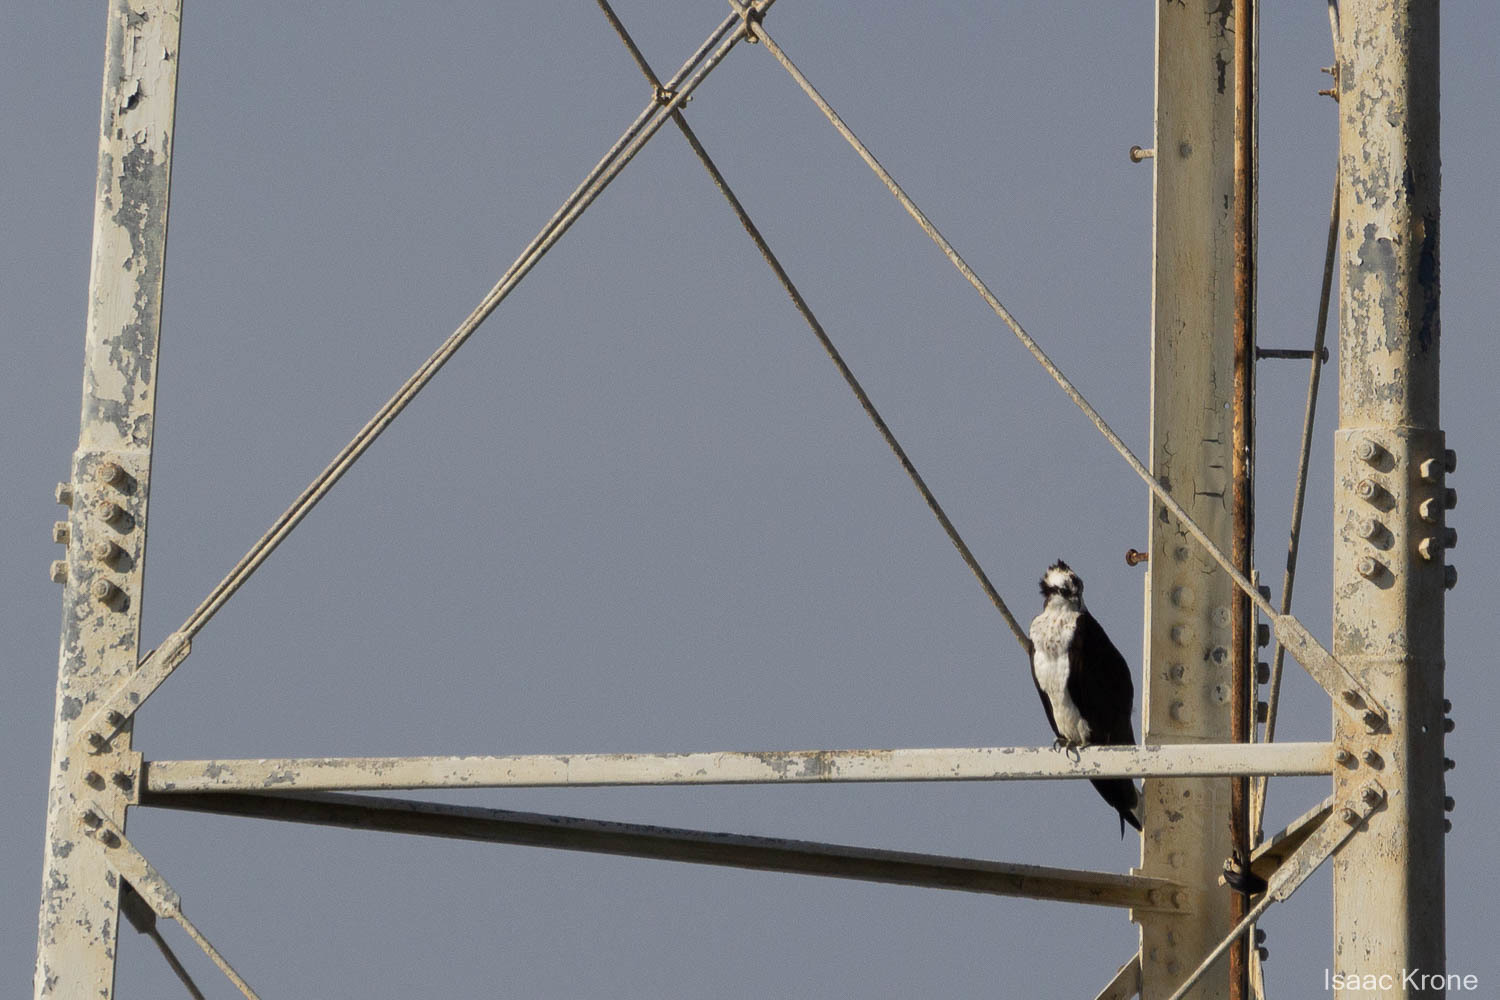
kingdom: Animalia
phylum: Chordata
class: Aves
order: Accipitriformes
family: Pandionidae
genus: Pandion
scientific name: Pandion haliaetus
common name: Osprey
